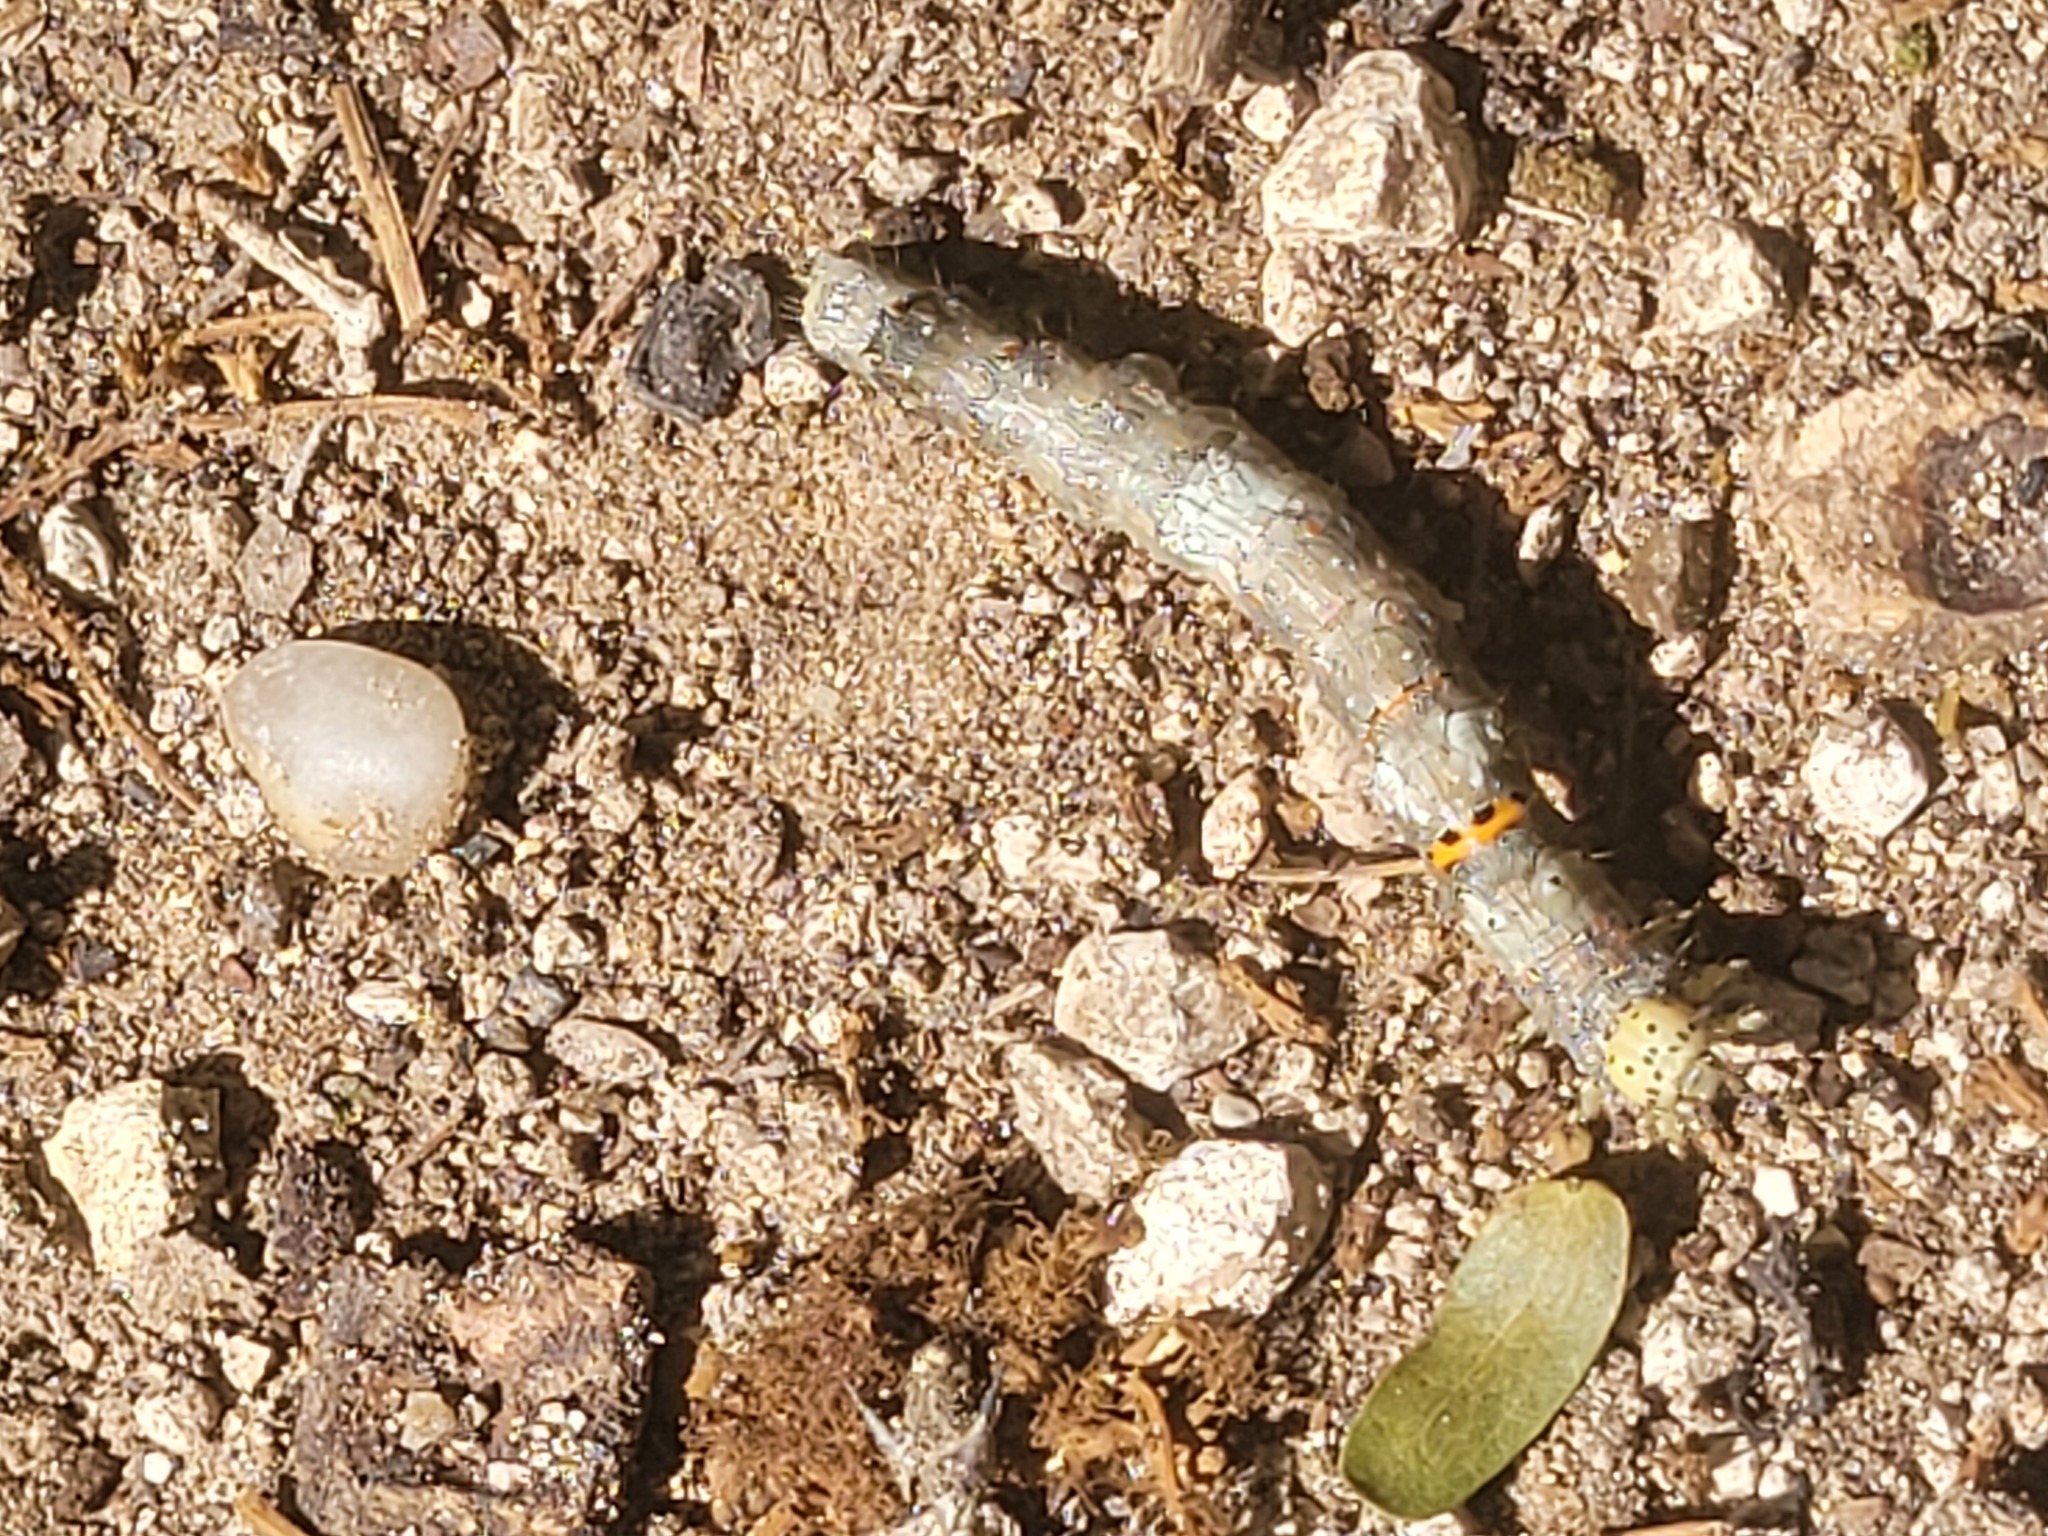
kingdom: Animalia
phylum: Arthropoda
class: Insecta
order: Lepidoptera
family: Erebidae
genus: Metria
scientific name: Metria bilineata
